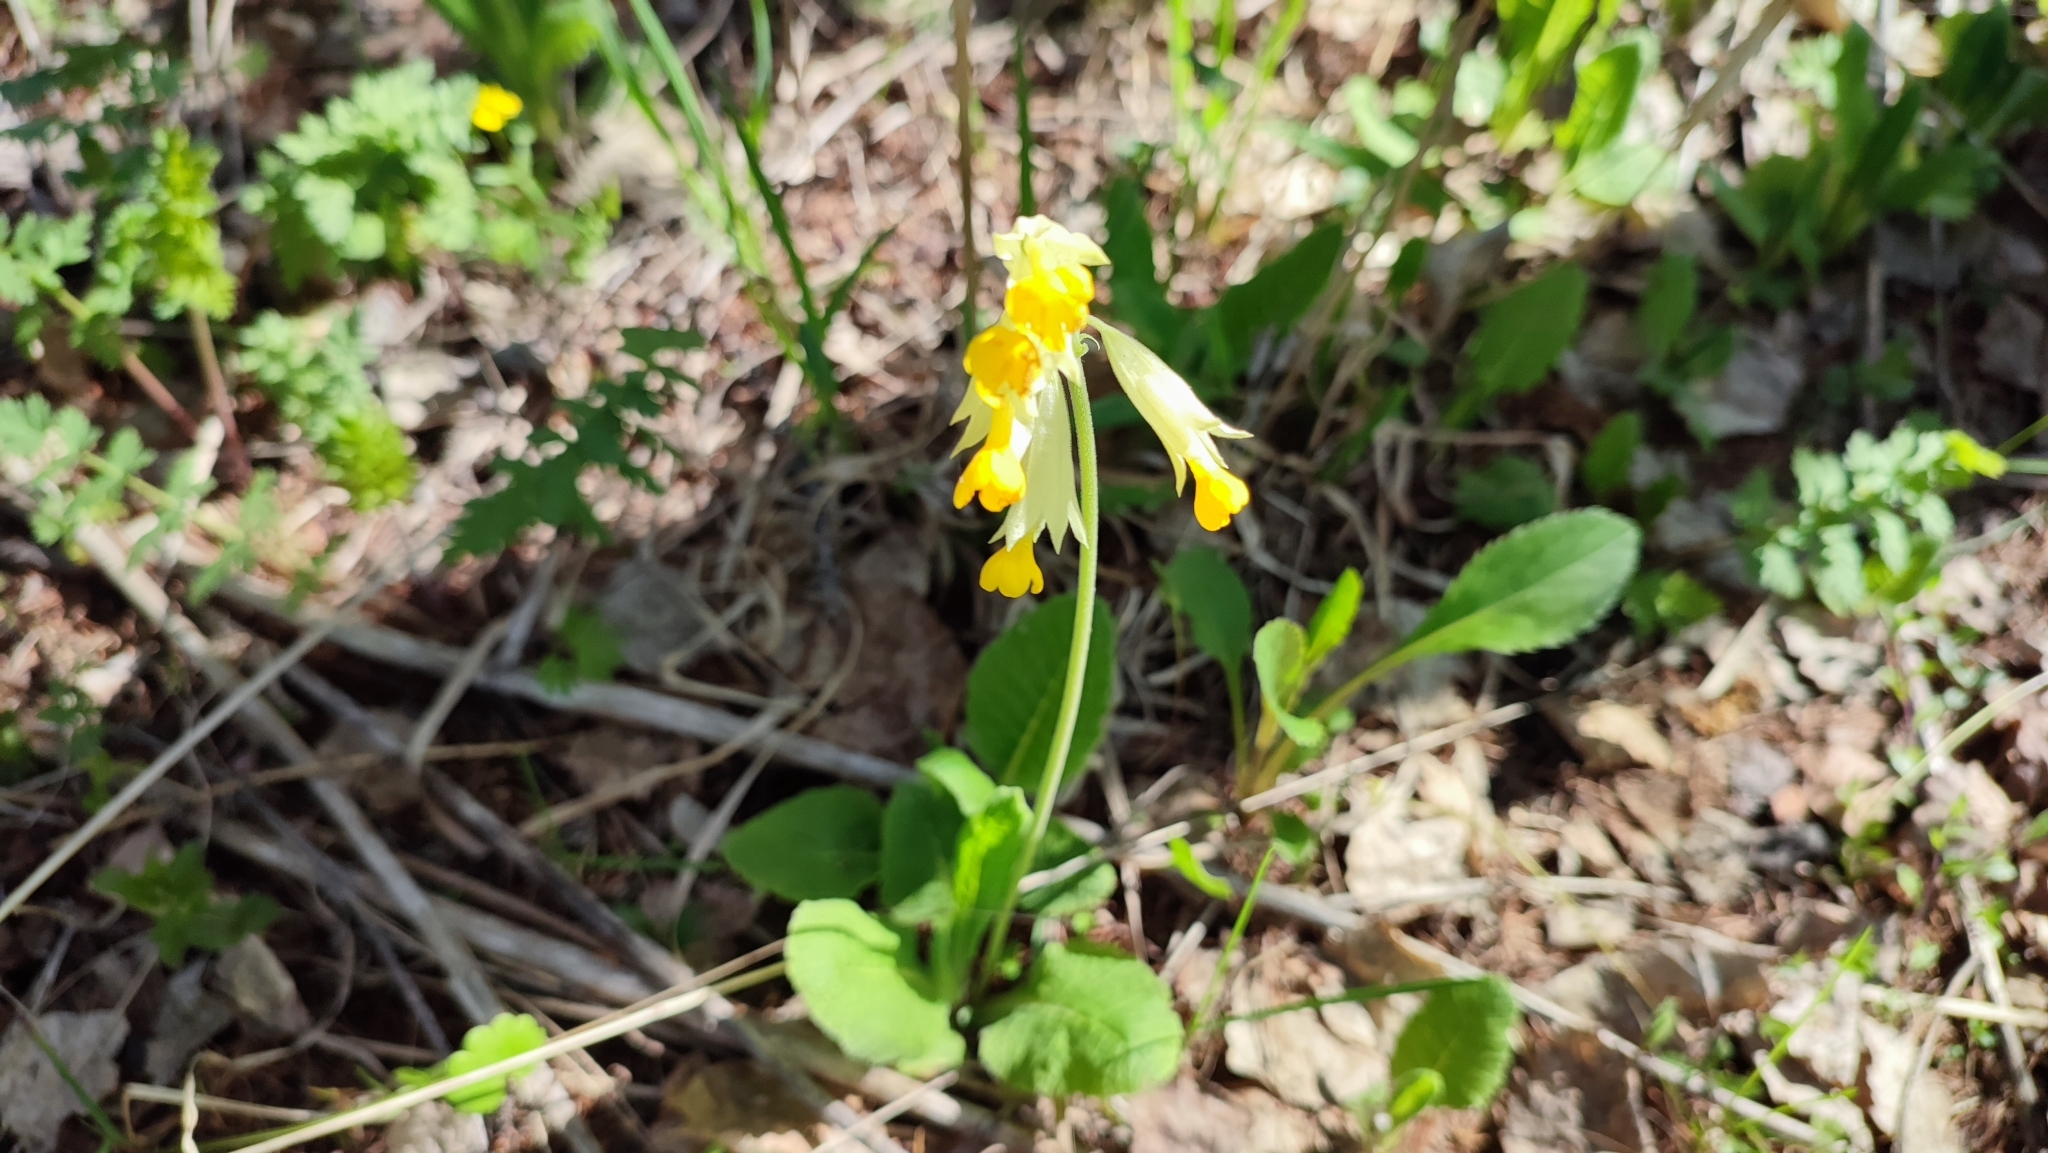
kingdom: Plantae
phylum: Tracheophyta
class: Magnoliopsida
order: Ericales
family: Primulaceae
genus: Primula
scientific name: Primula veris
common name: Cowslip
